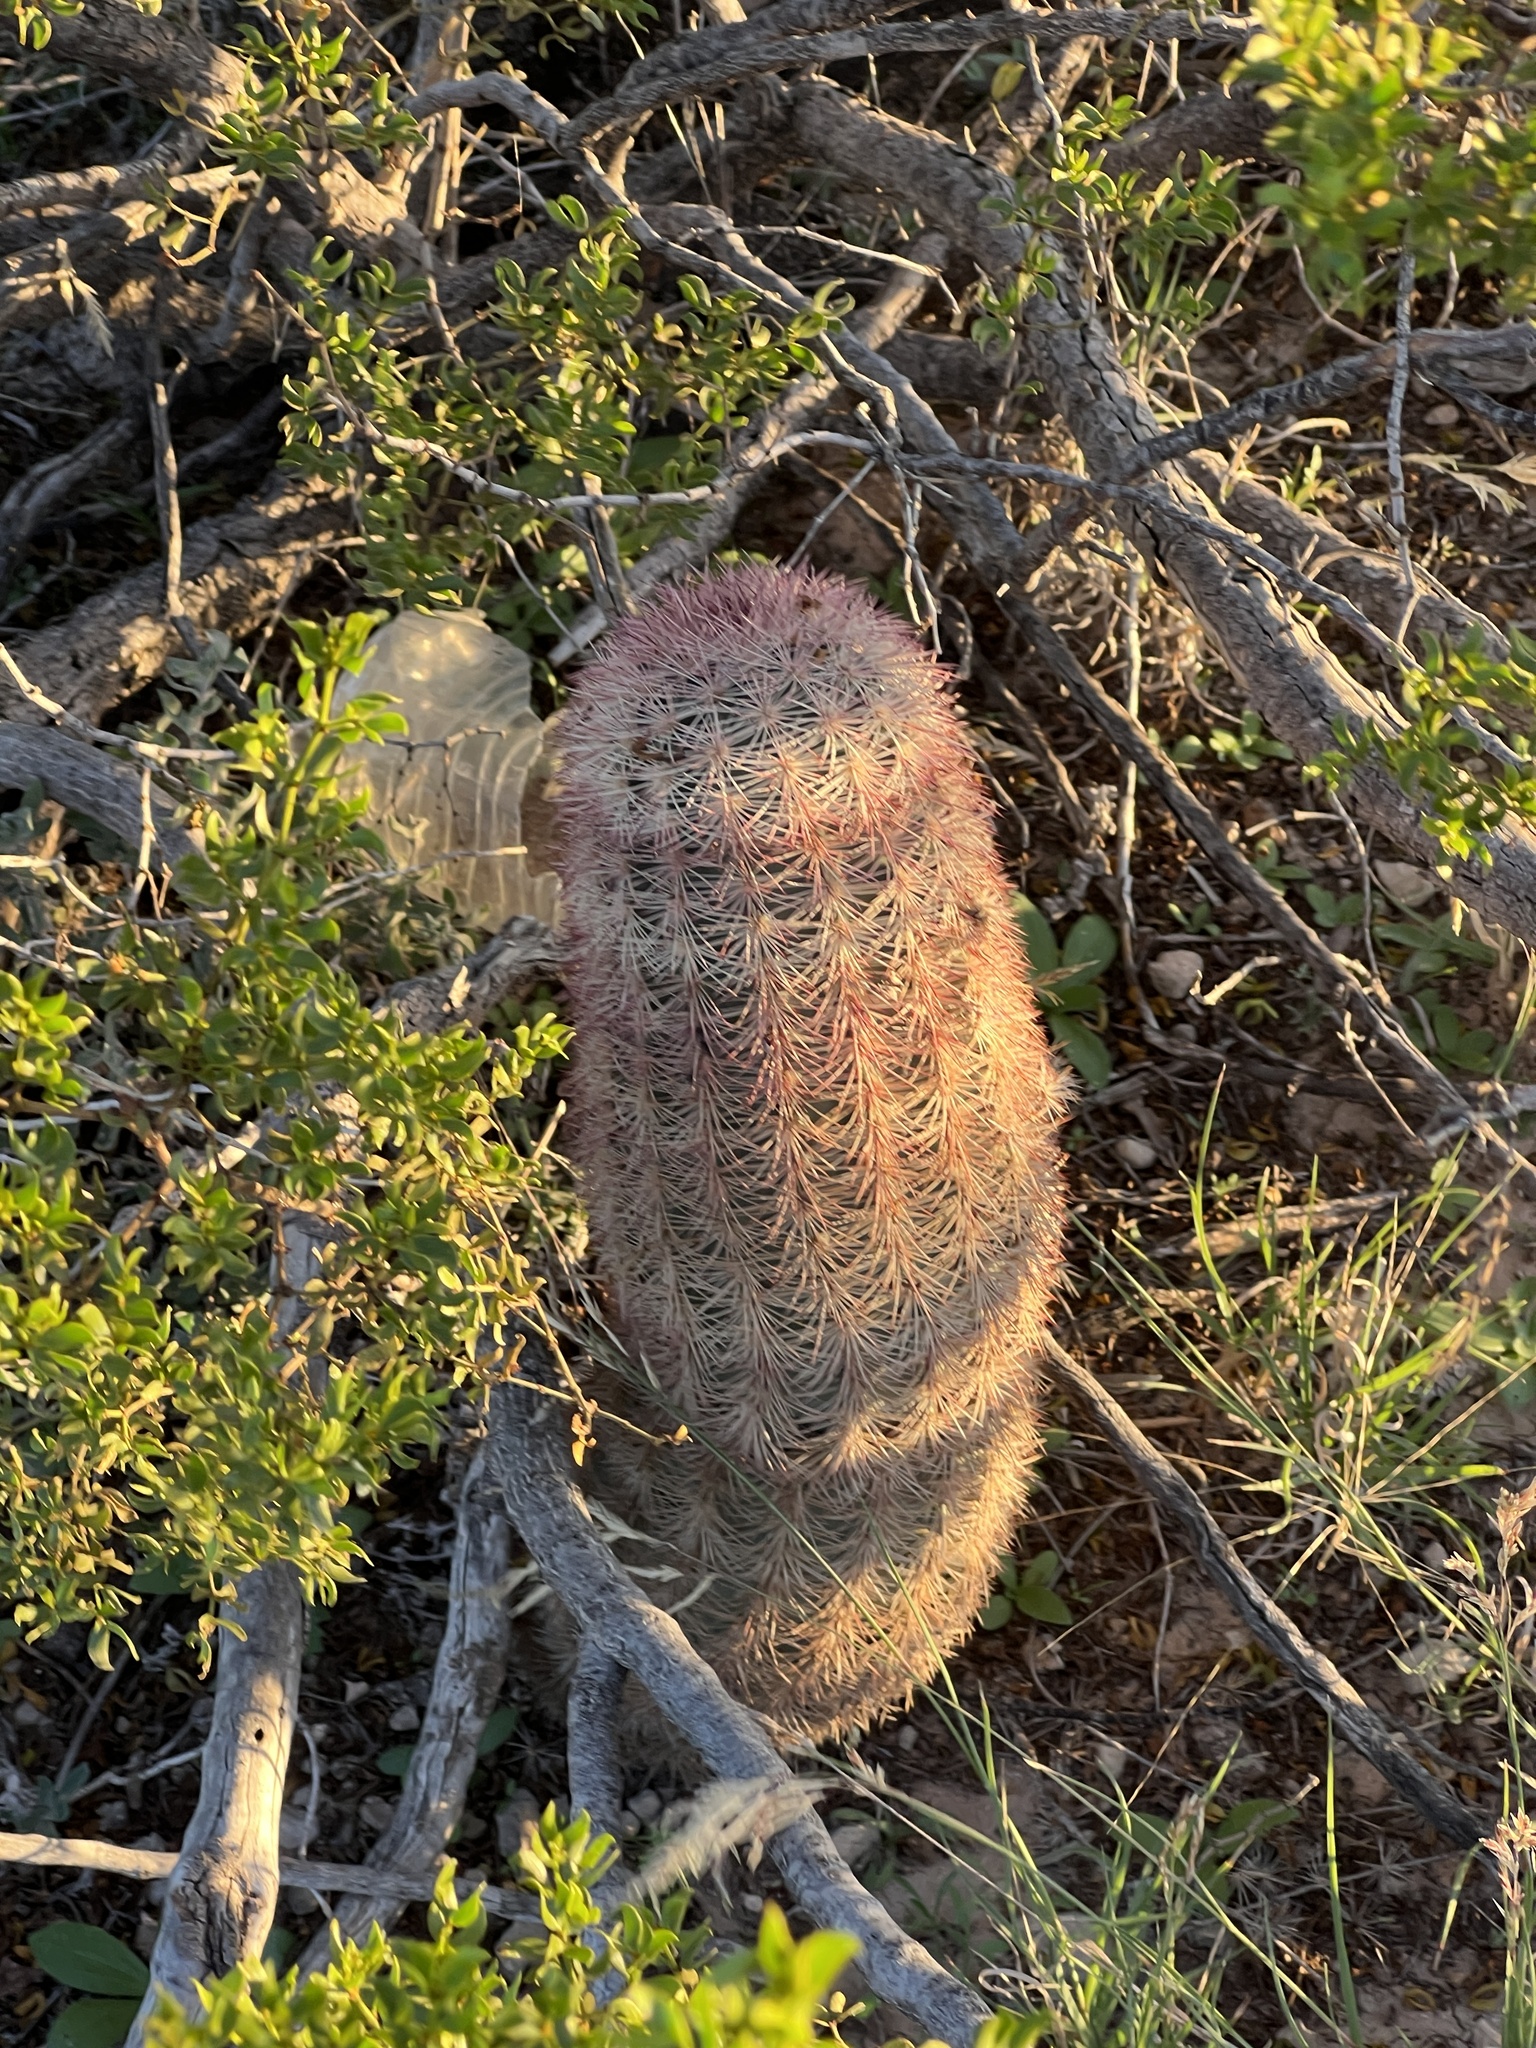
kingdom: Plantae
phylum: Tracheophyta
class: Magnoliopsida
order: Caryophyllales
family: Cactaceae
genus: Echinocereus
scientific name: Echinocereus dasyacanthus
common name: Spiny hedgehog cactus
